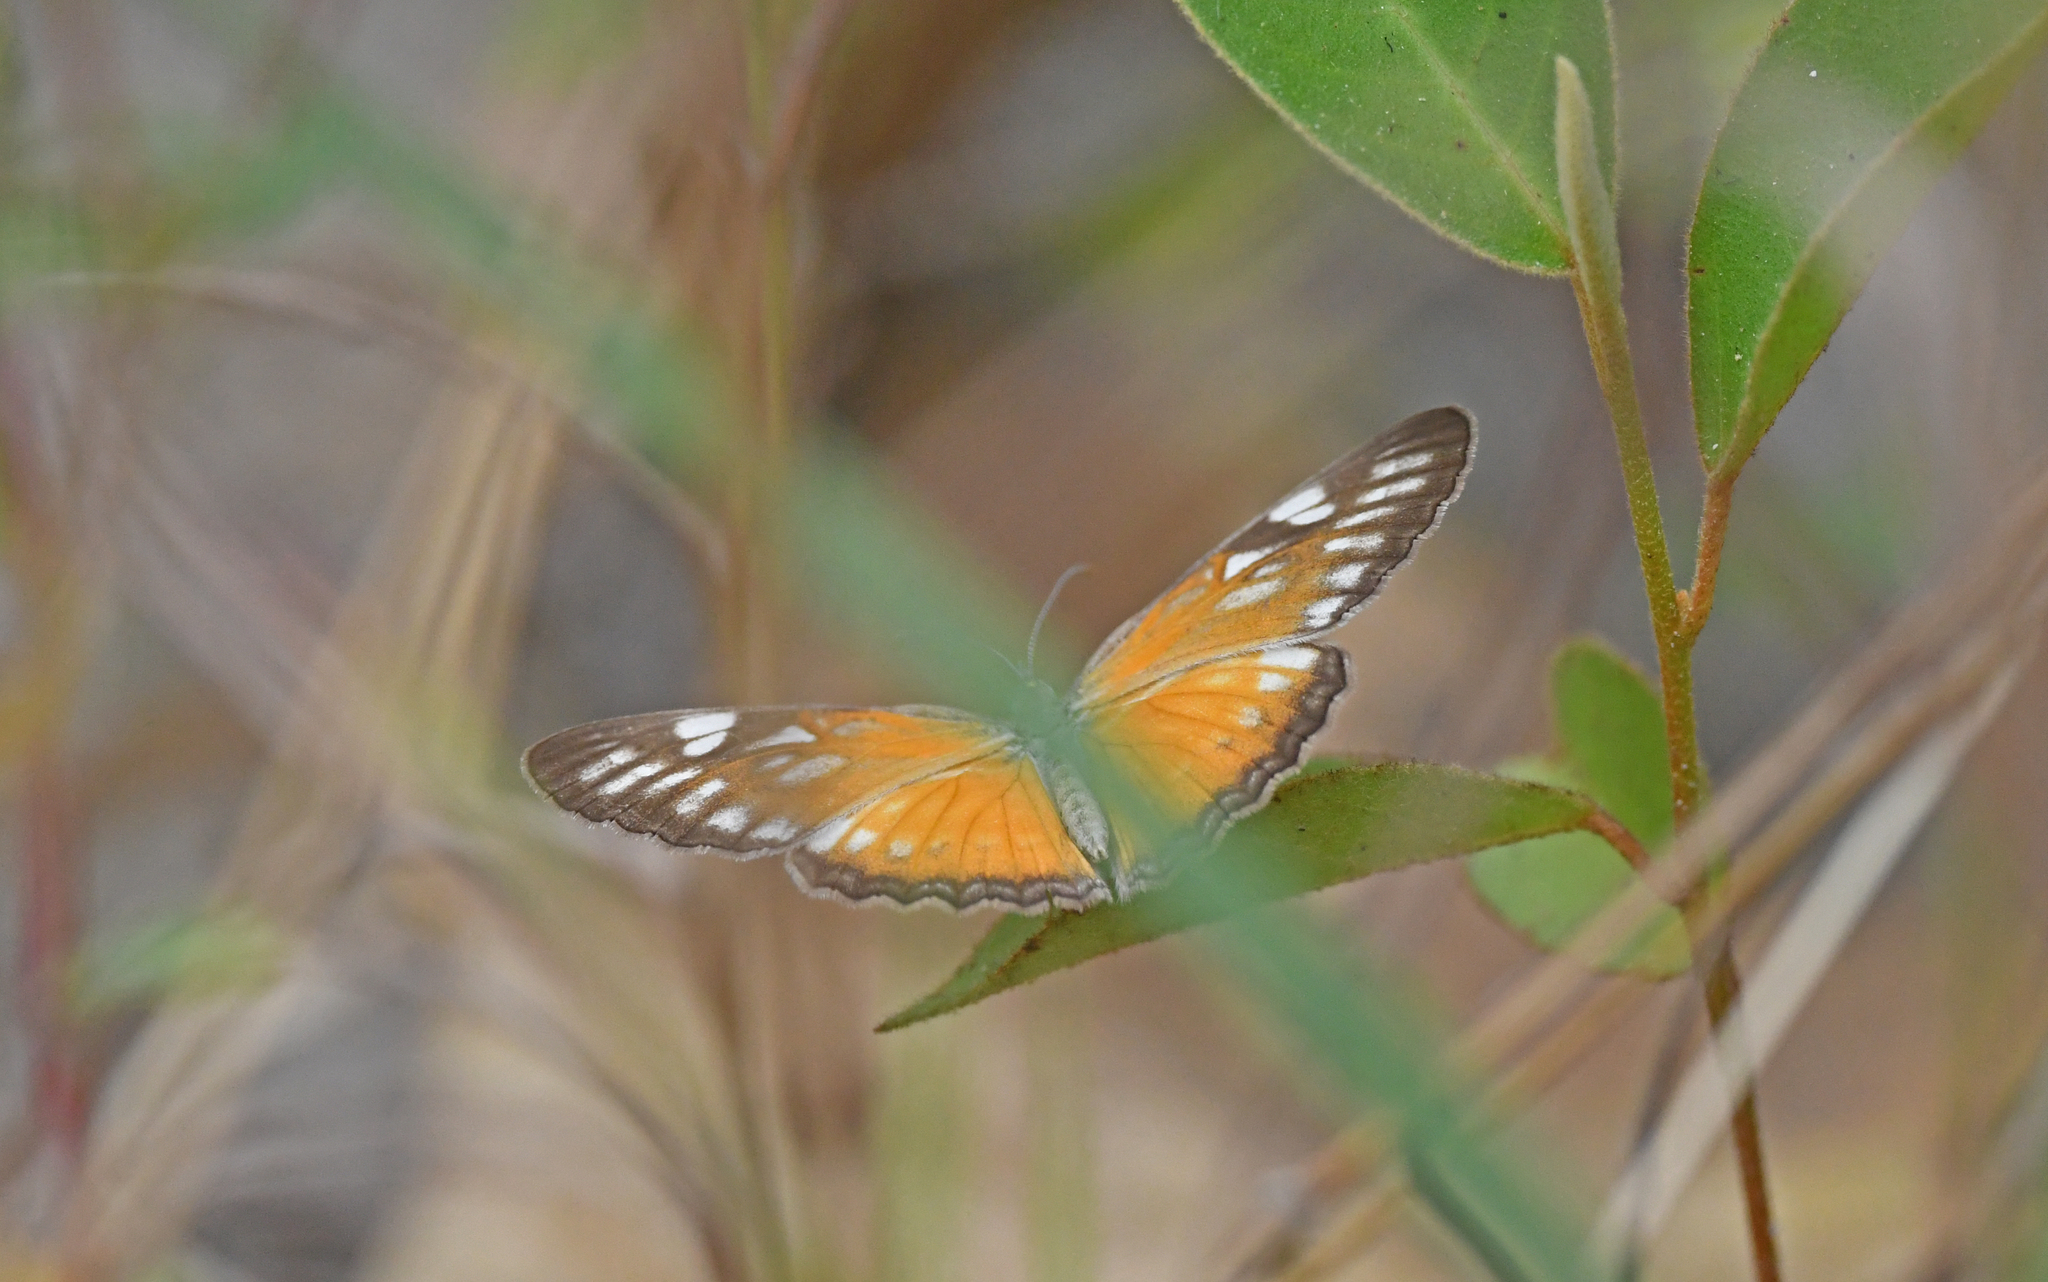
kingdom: Animalia
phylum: Arthropoda
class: Insecta
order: Lepidoptera
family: Nymphalidae
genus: Mestra
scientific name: Mestra hersilia
